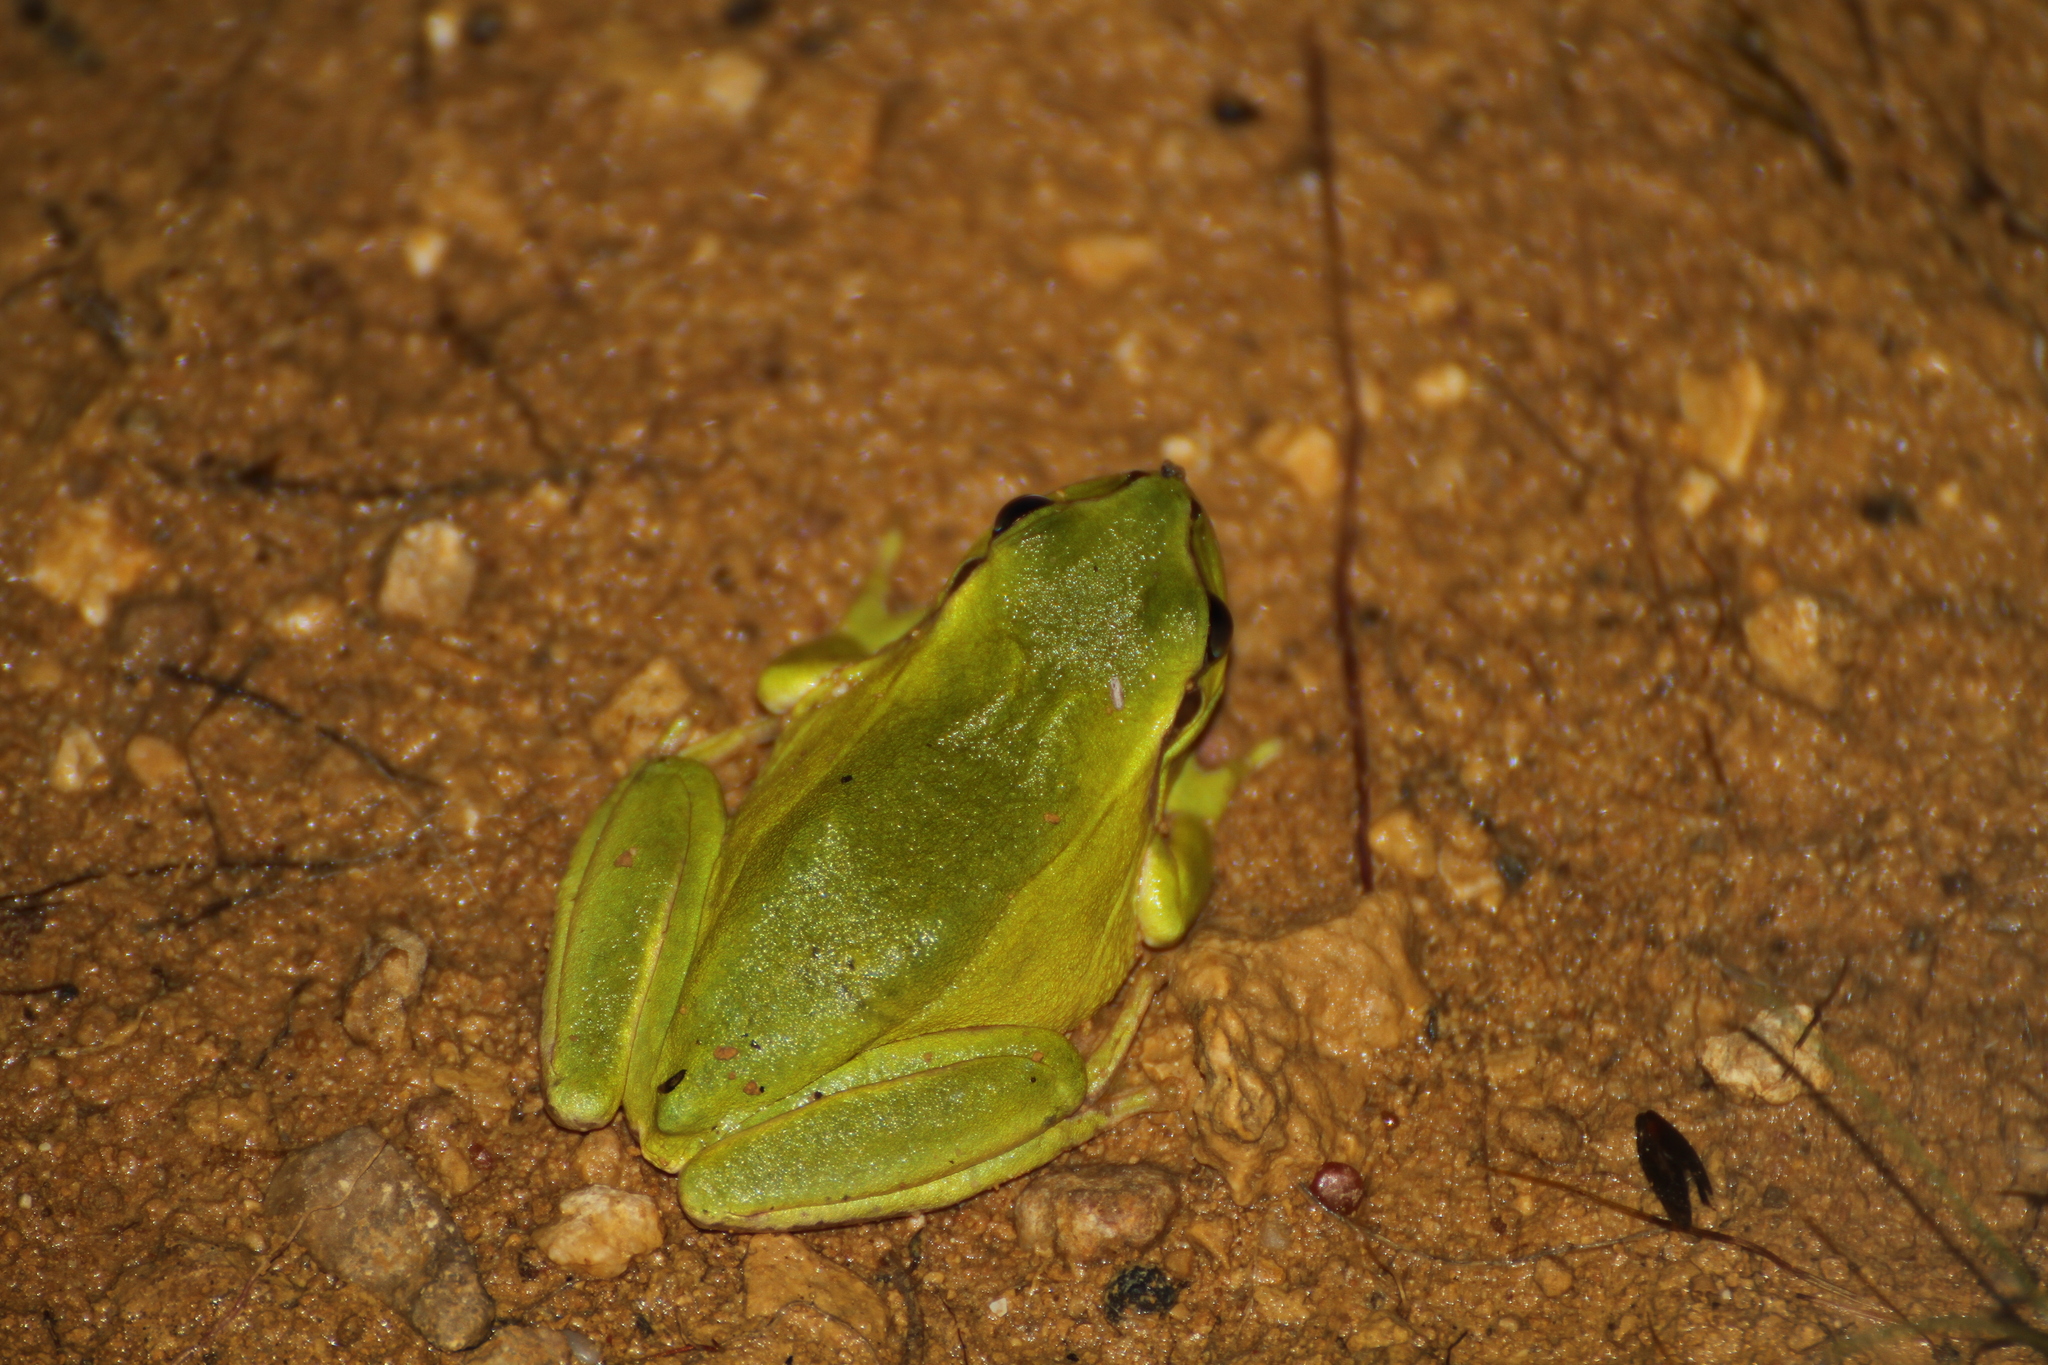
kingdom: Animalia
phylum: Chordata
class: Amphibia
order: Anura
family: Hylidae
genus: Hyla
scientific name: Hyla meridionalis
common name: Stripeless tree frog
